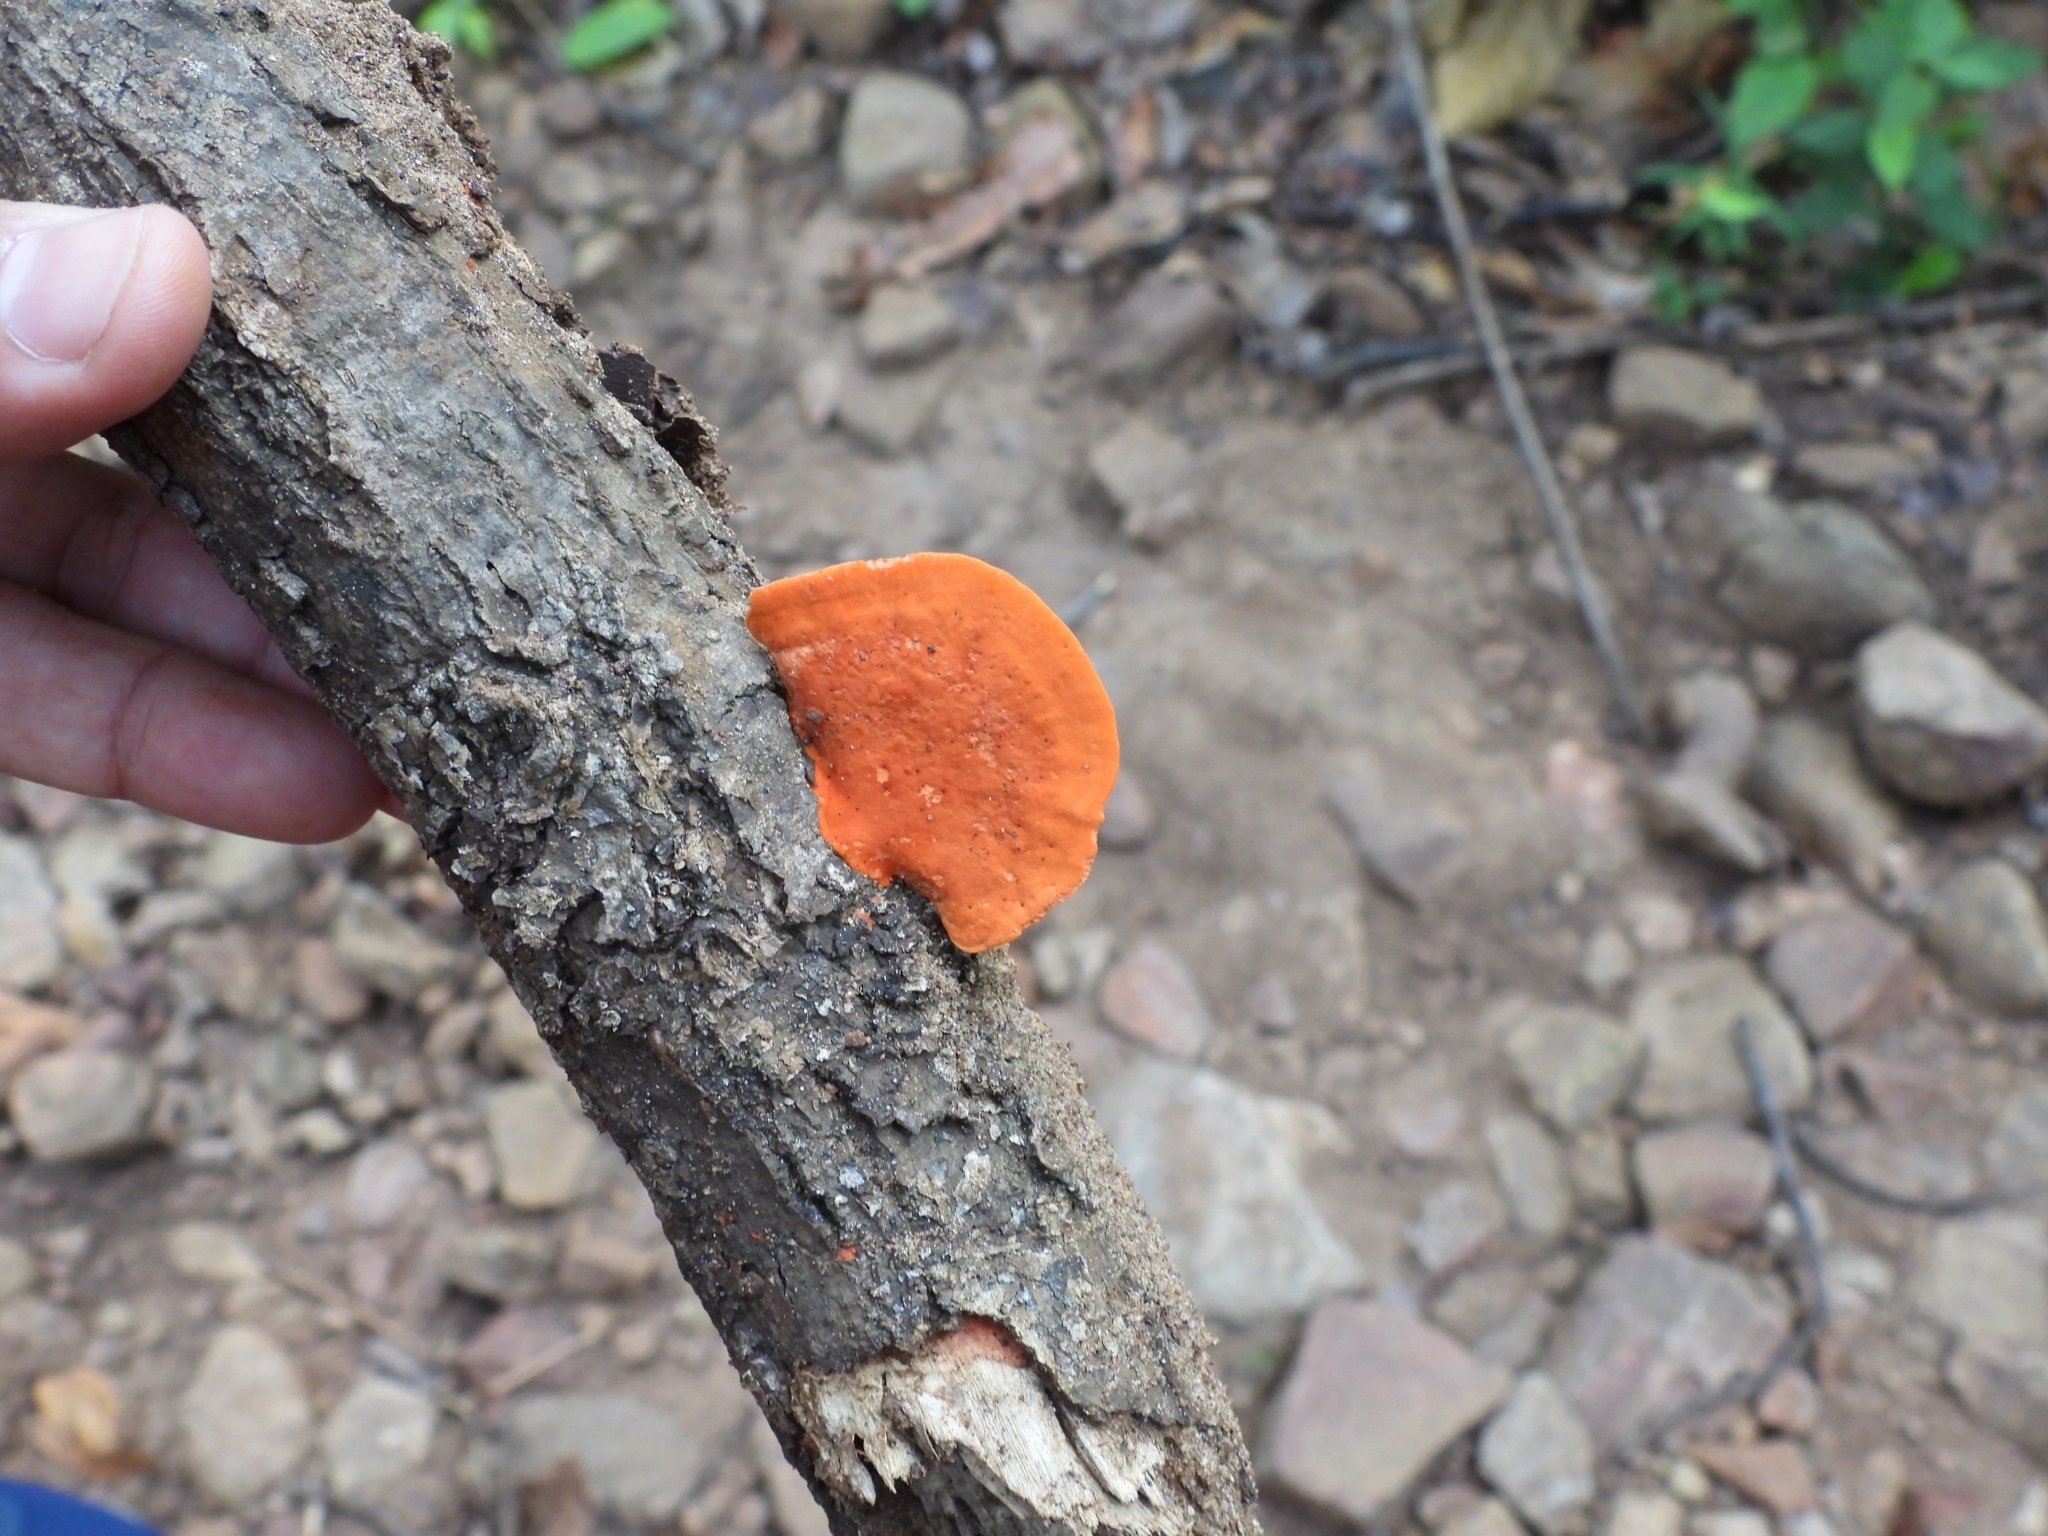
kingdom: Fungi
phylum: Basidiomycota
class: Agaricomycetes
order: Polyporales
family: Polyporaceae
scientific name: Polyporaceae
